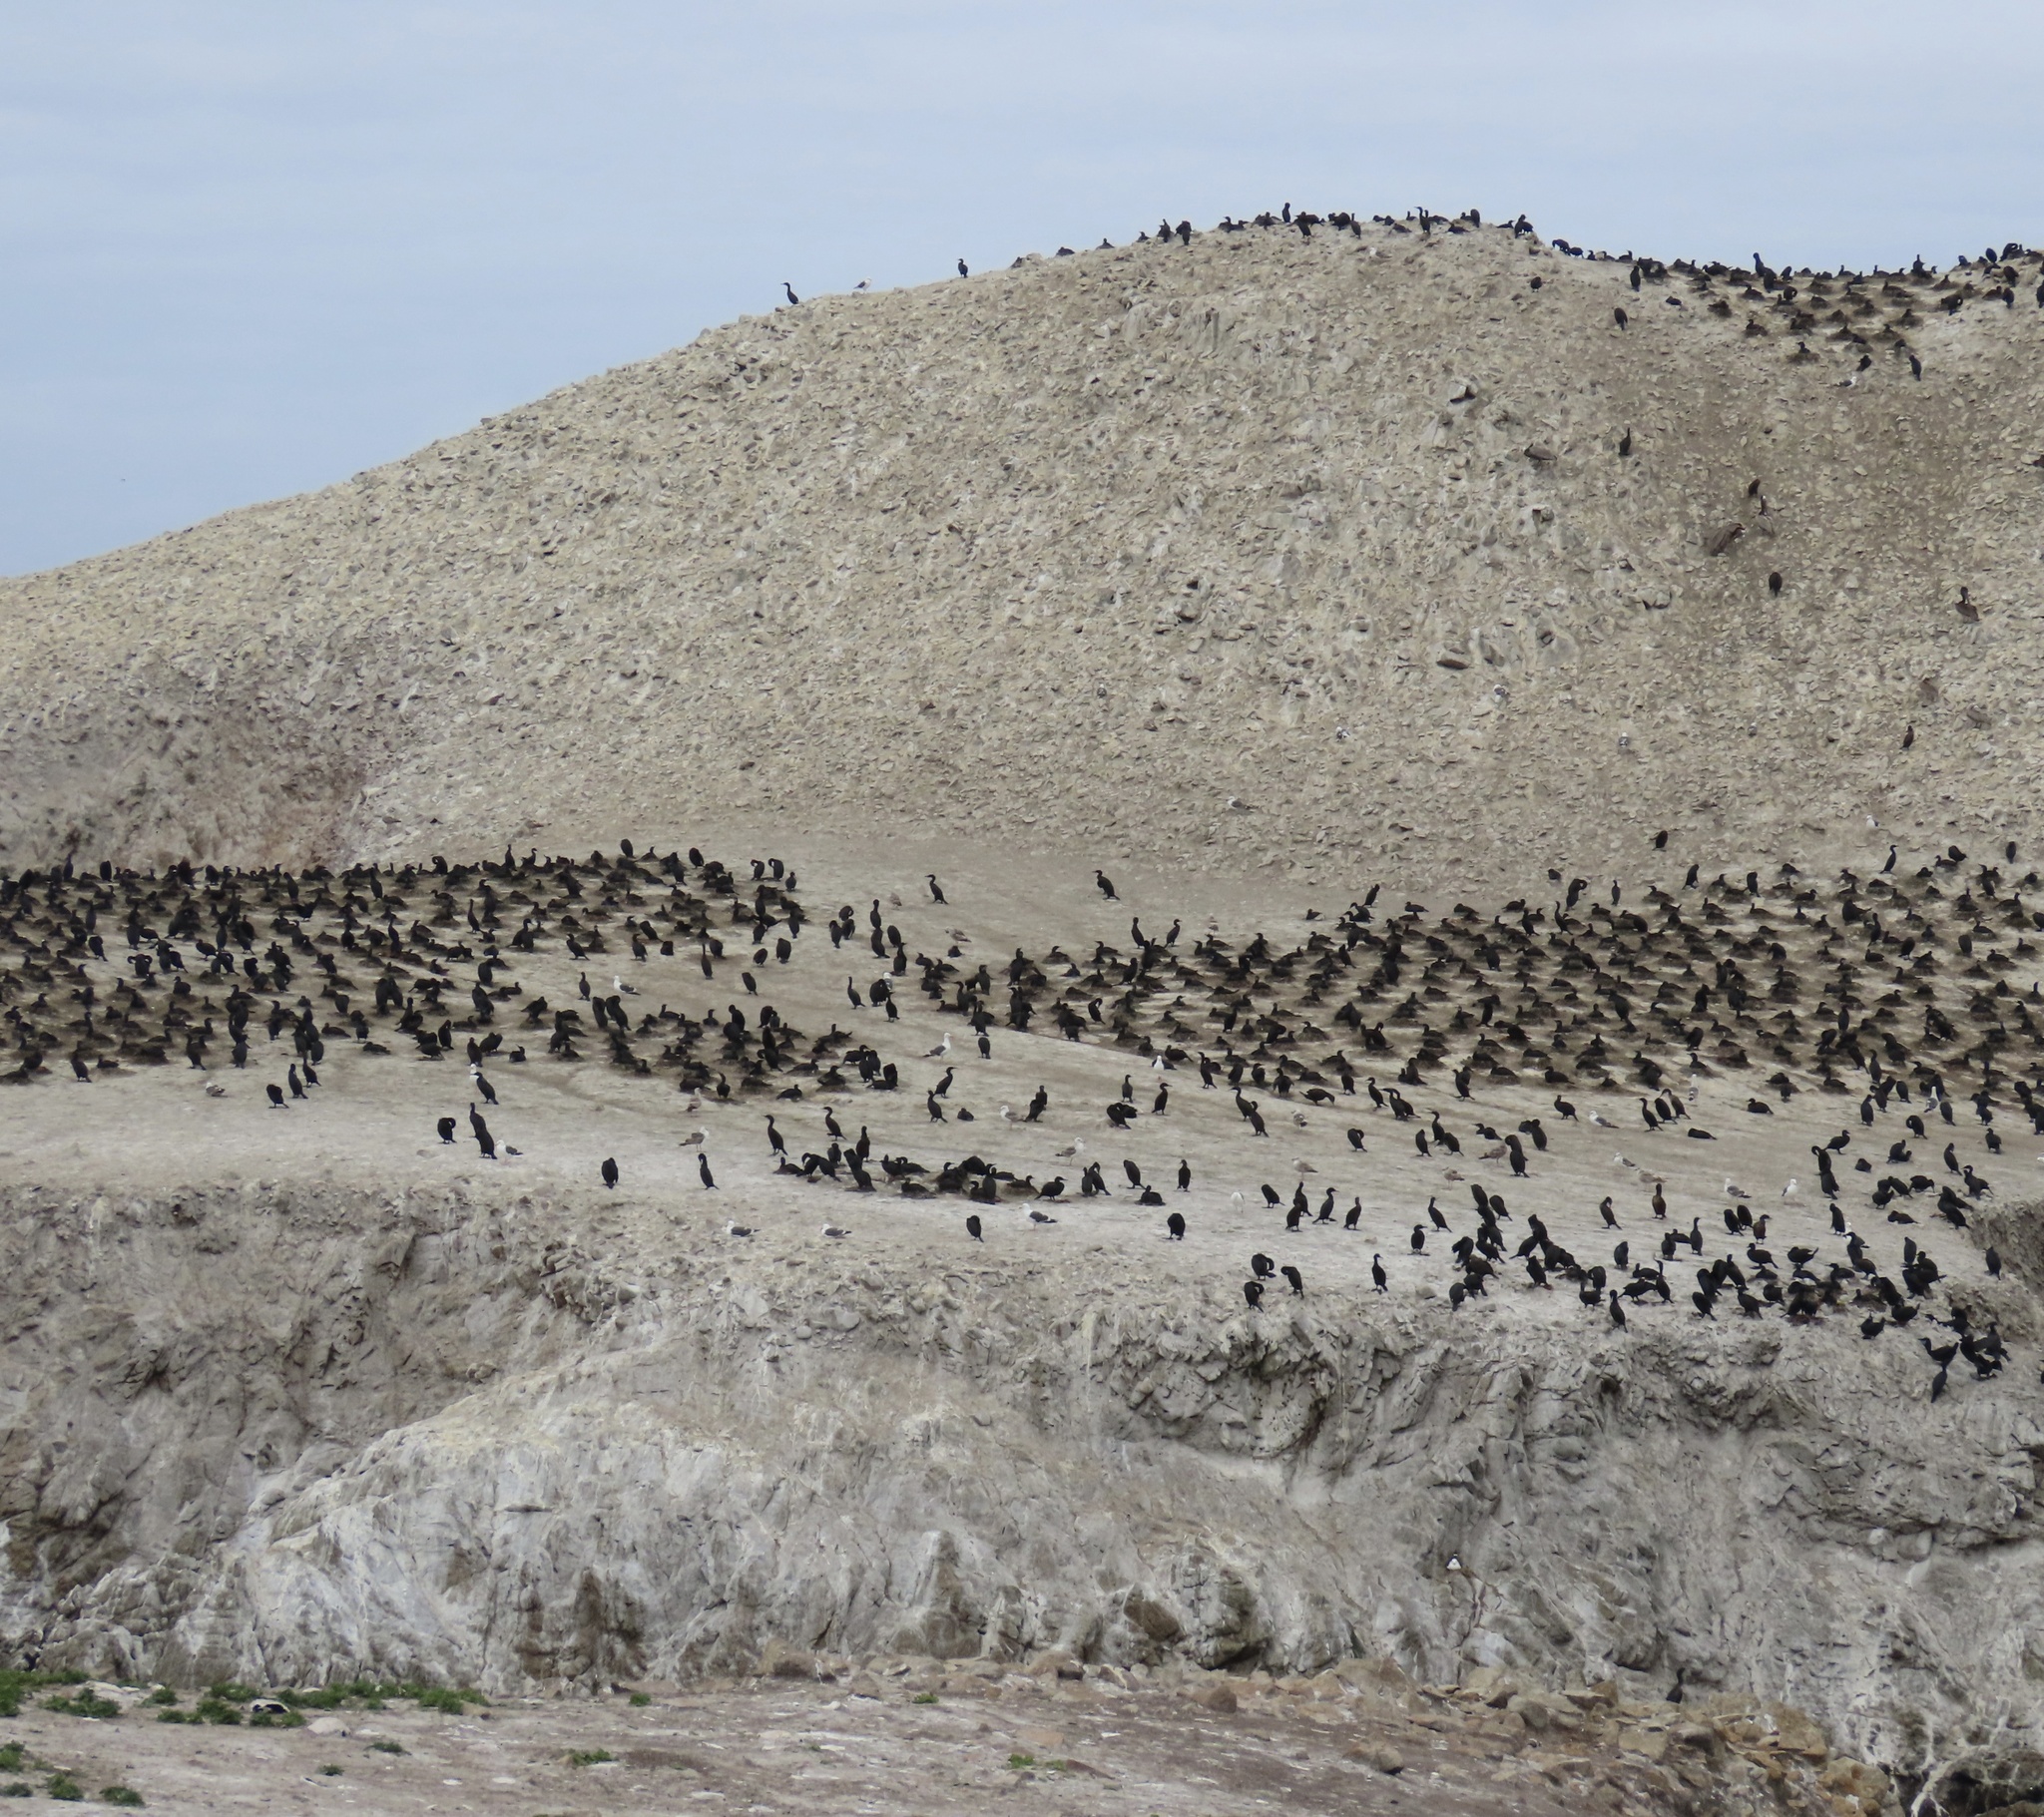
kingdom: Animalia
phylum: Chordata
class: Aves
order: Suliformes
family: Phalacrocoracidae
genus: Urile
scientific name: Urile penicillatus
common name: Brandt's cormorant
